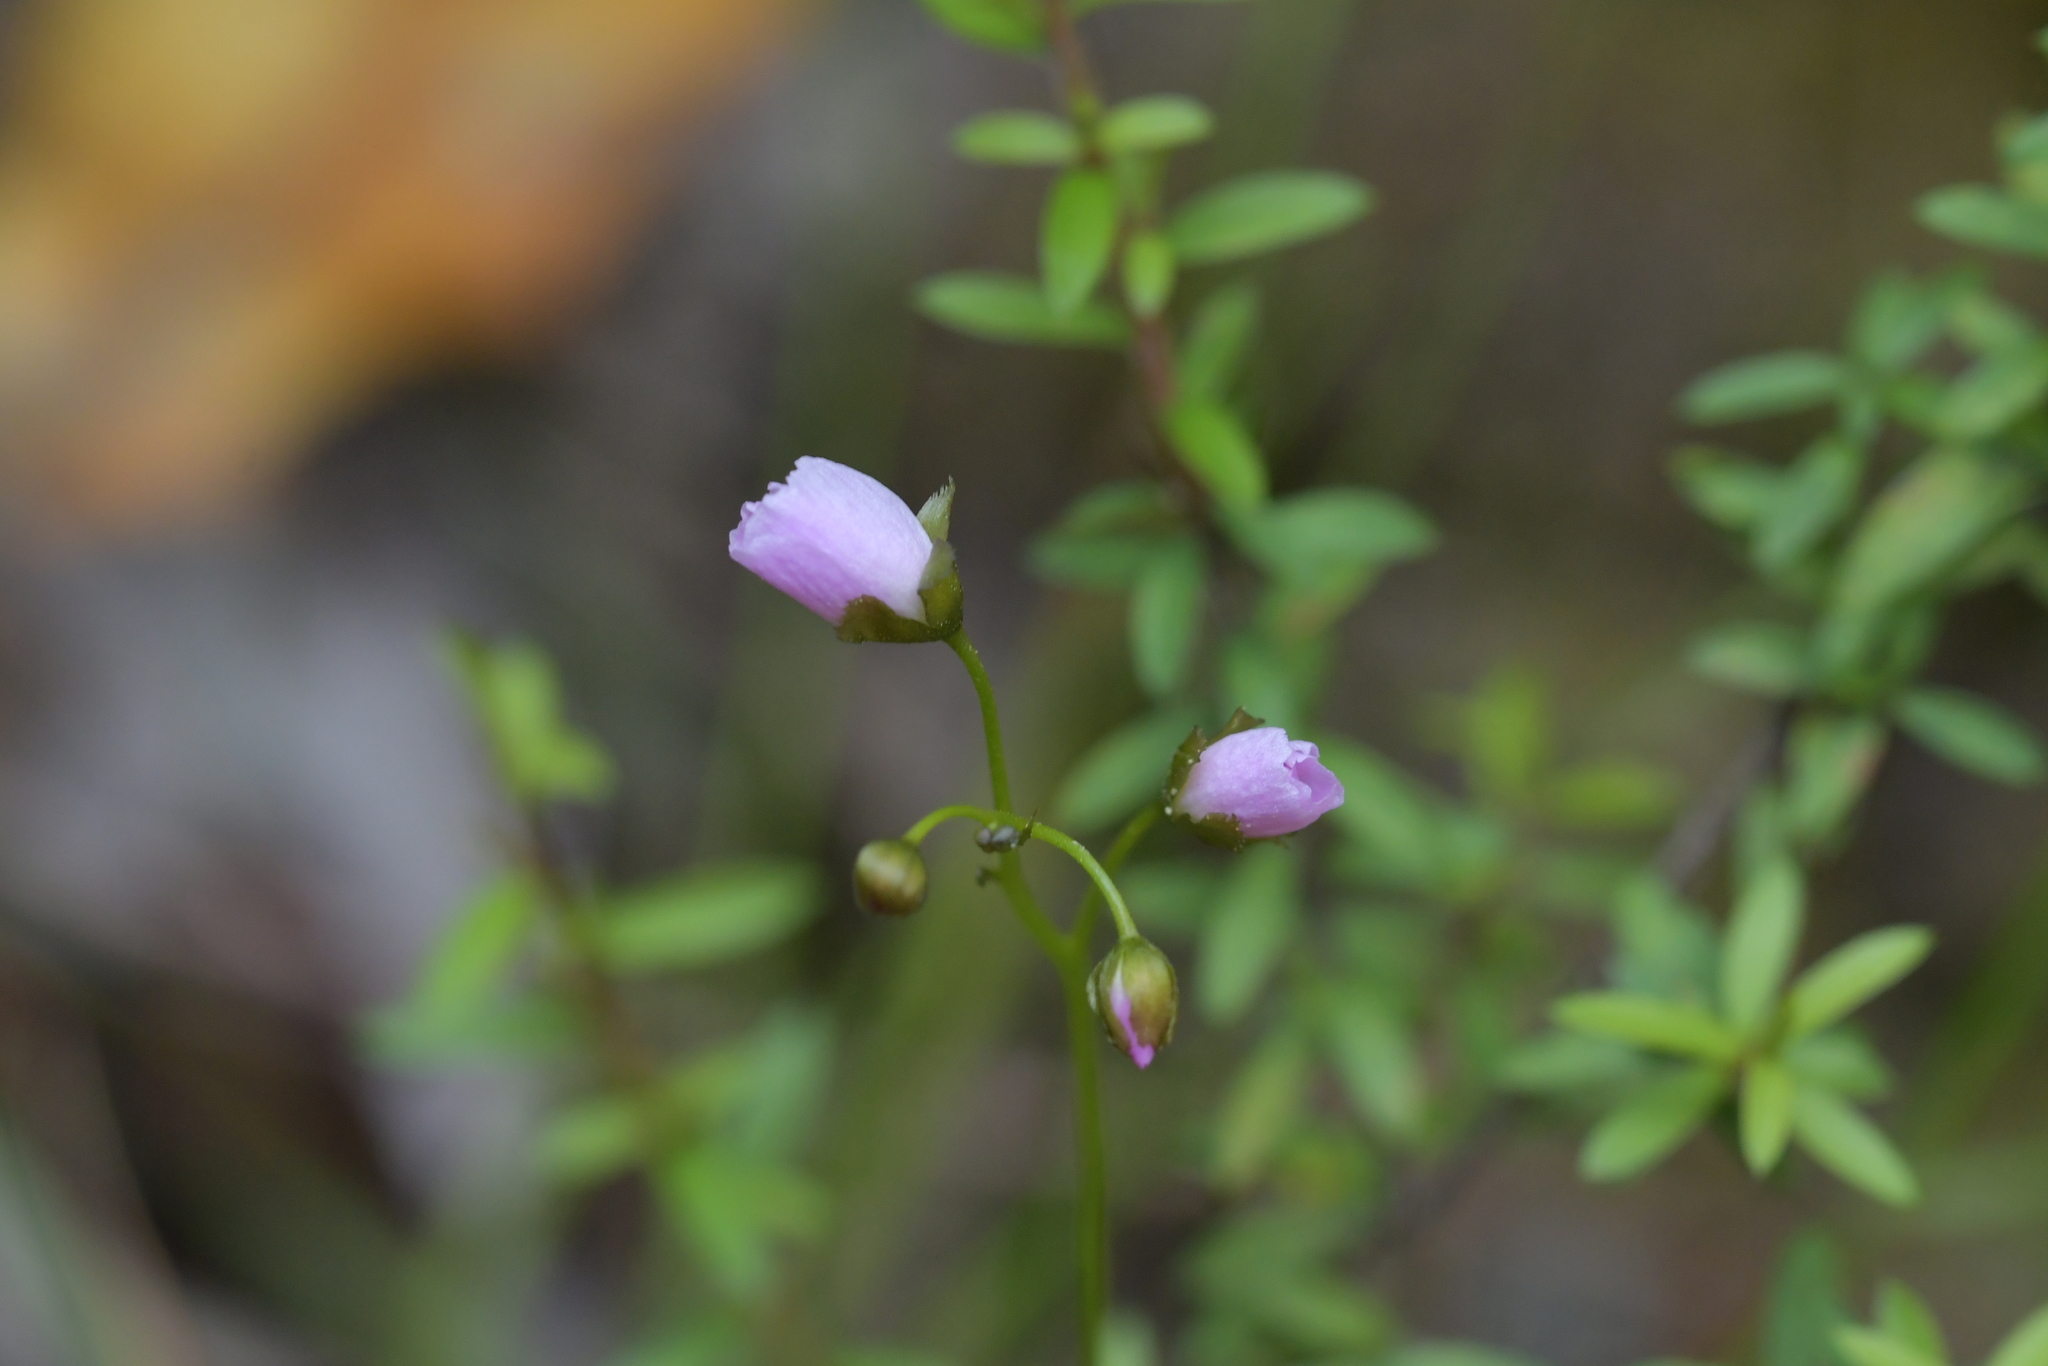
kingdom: Plantae
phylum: Tracheophyta
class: Magnoliopsida
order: Caryophyllales
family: Droseraceae
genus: Drosera
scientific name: Drosera peltata
